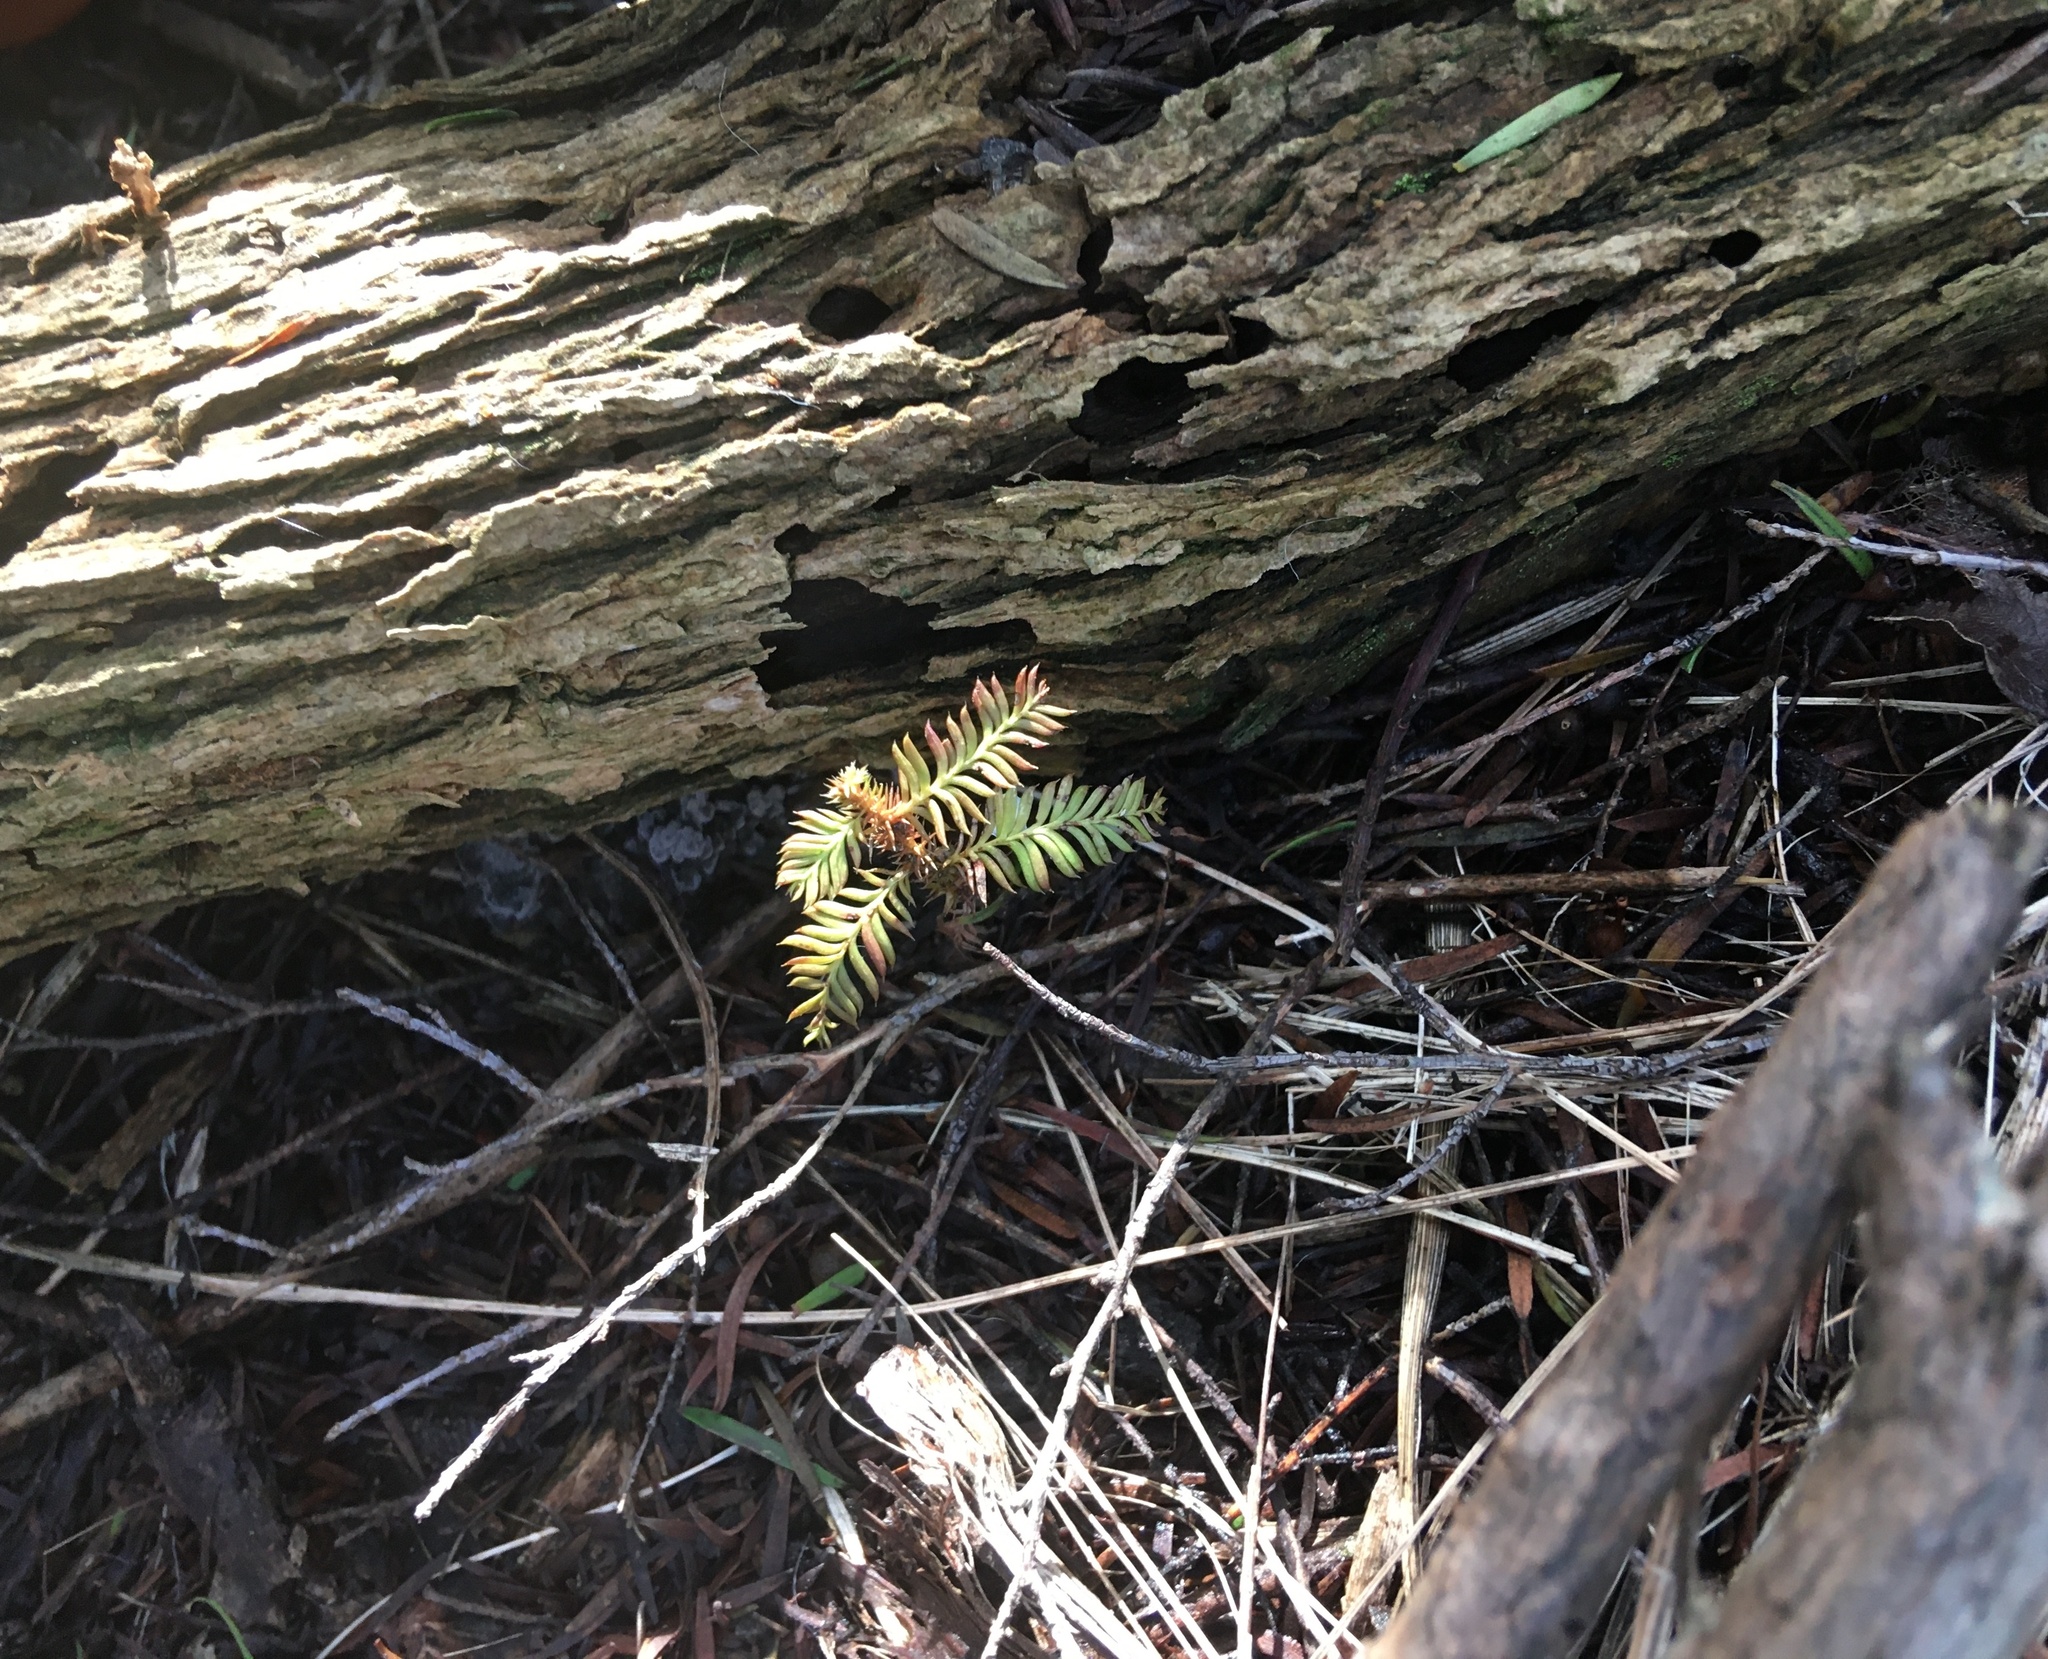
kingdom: Plantae
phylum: Tracheophyta
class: Pinopsida
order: Pinales
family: Podocarpaceae
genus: Dacrycarpus
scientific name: Dacrycarpus dacrydioides
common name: White pine
